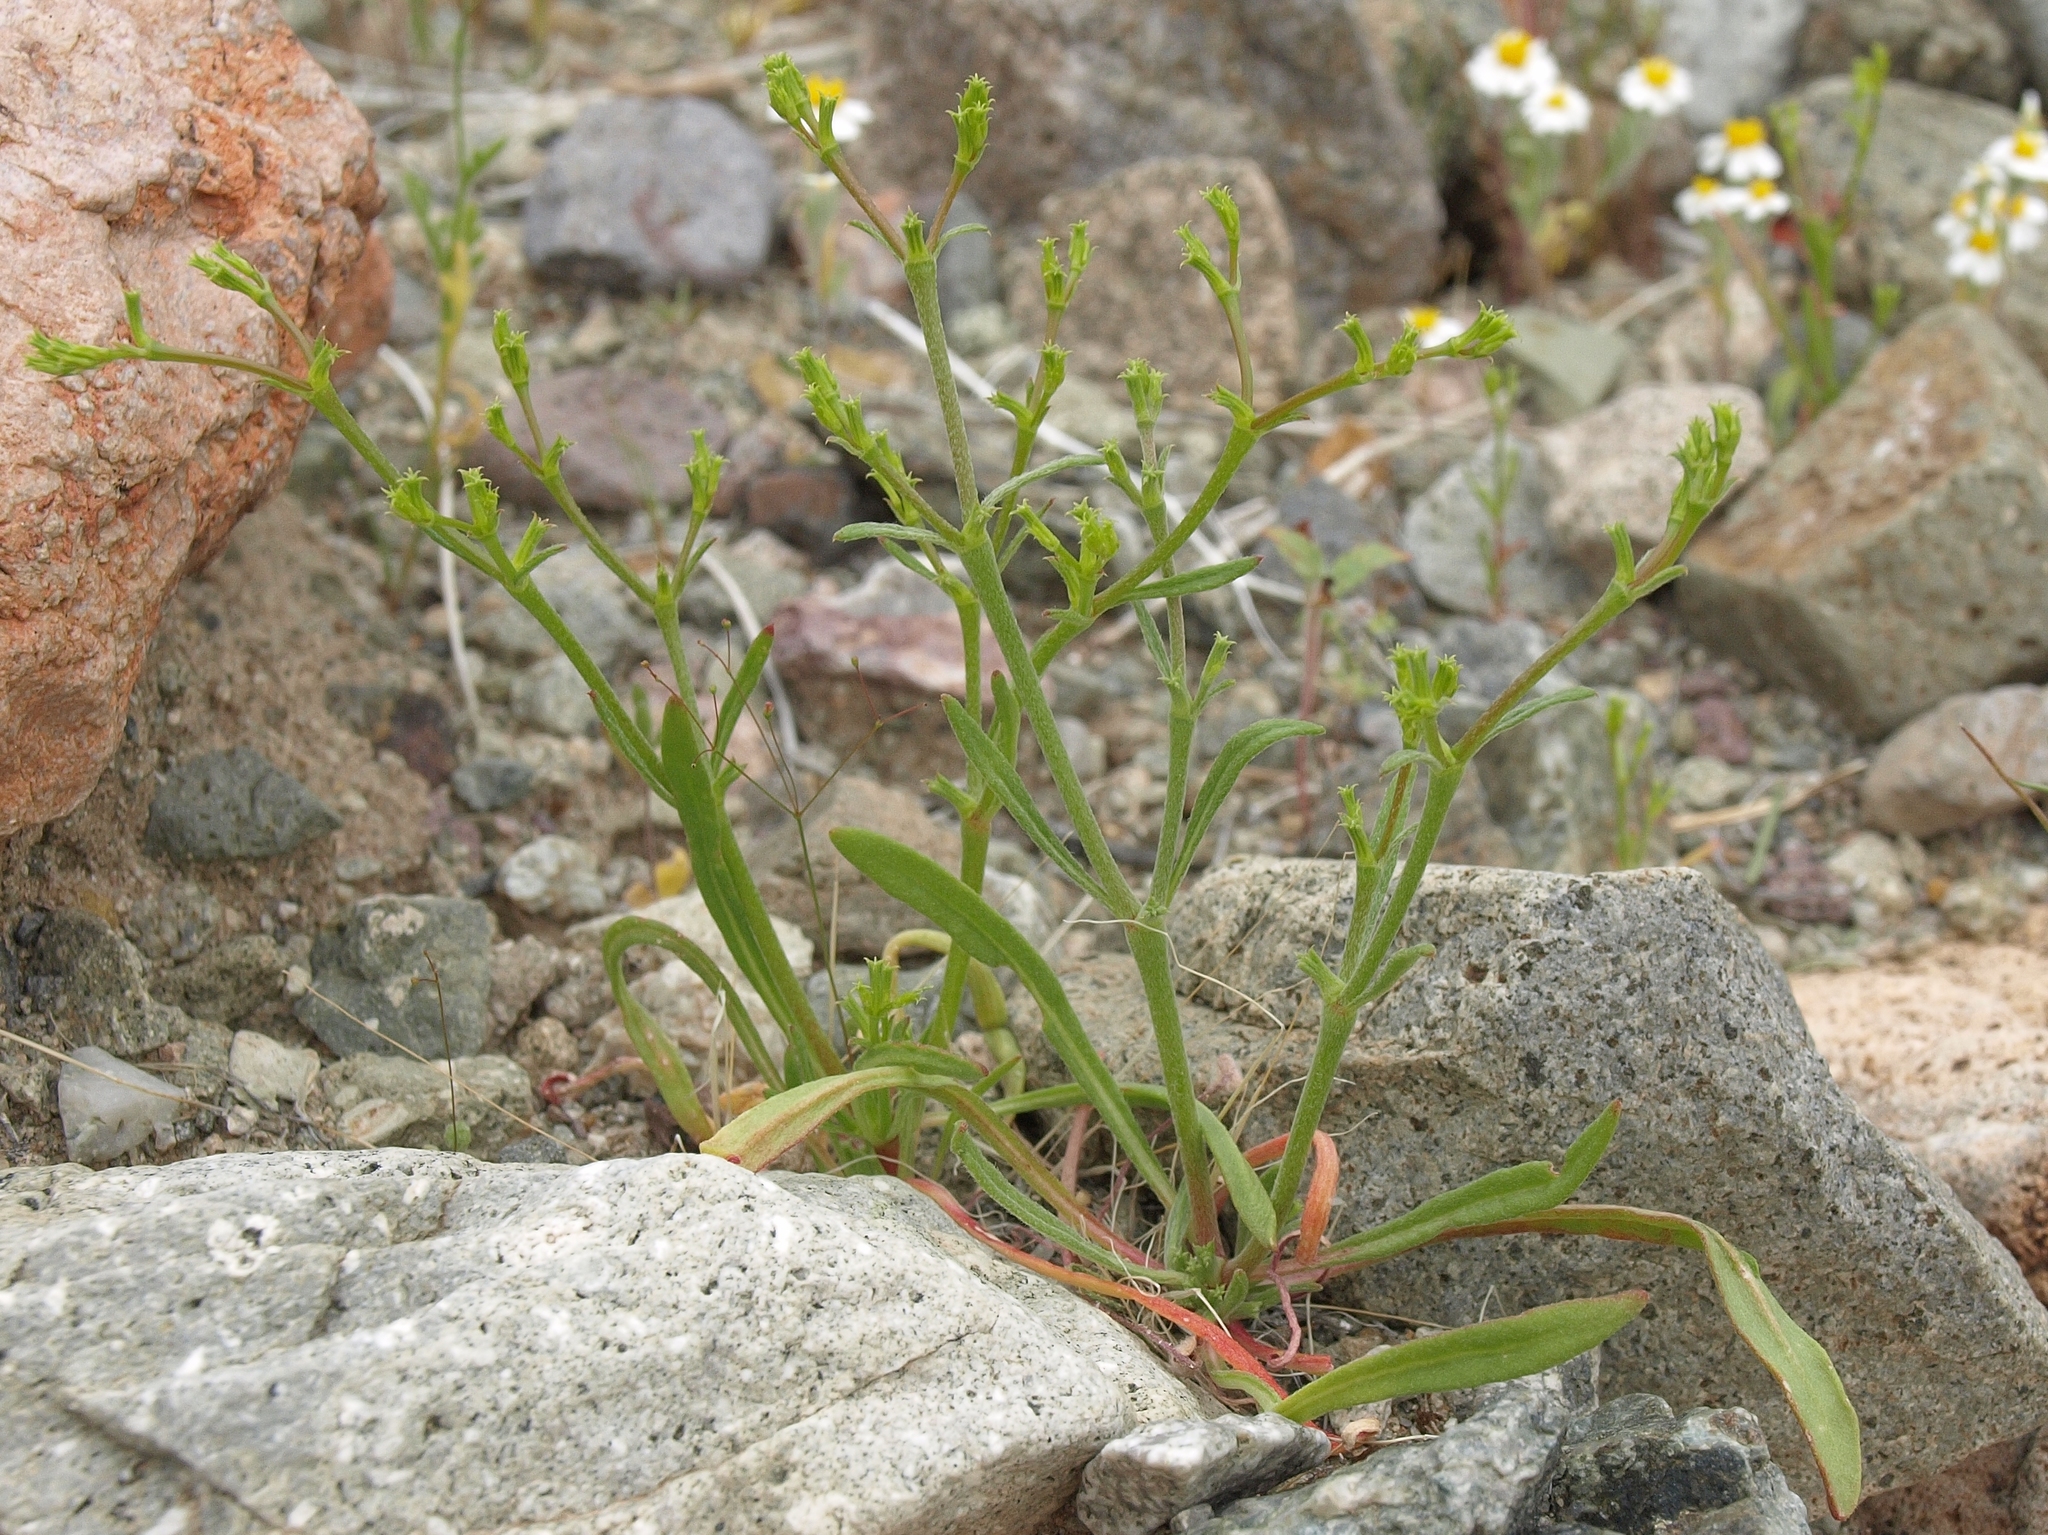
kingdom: Plantae
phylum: Tracheophyta
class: Magnoliopsida
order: Caryophyllales
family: Polygonaceae
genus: Chorizanthe
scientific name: Chorizanthe brevicornu
